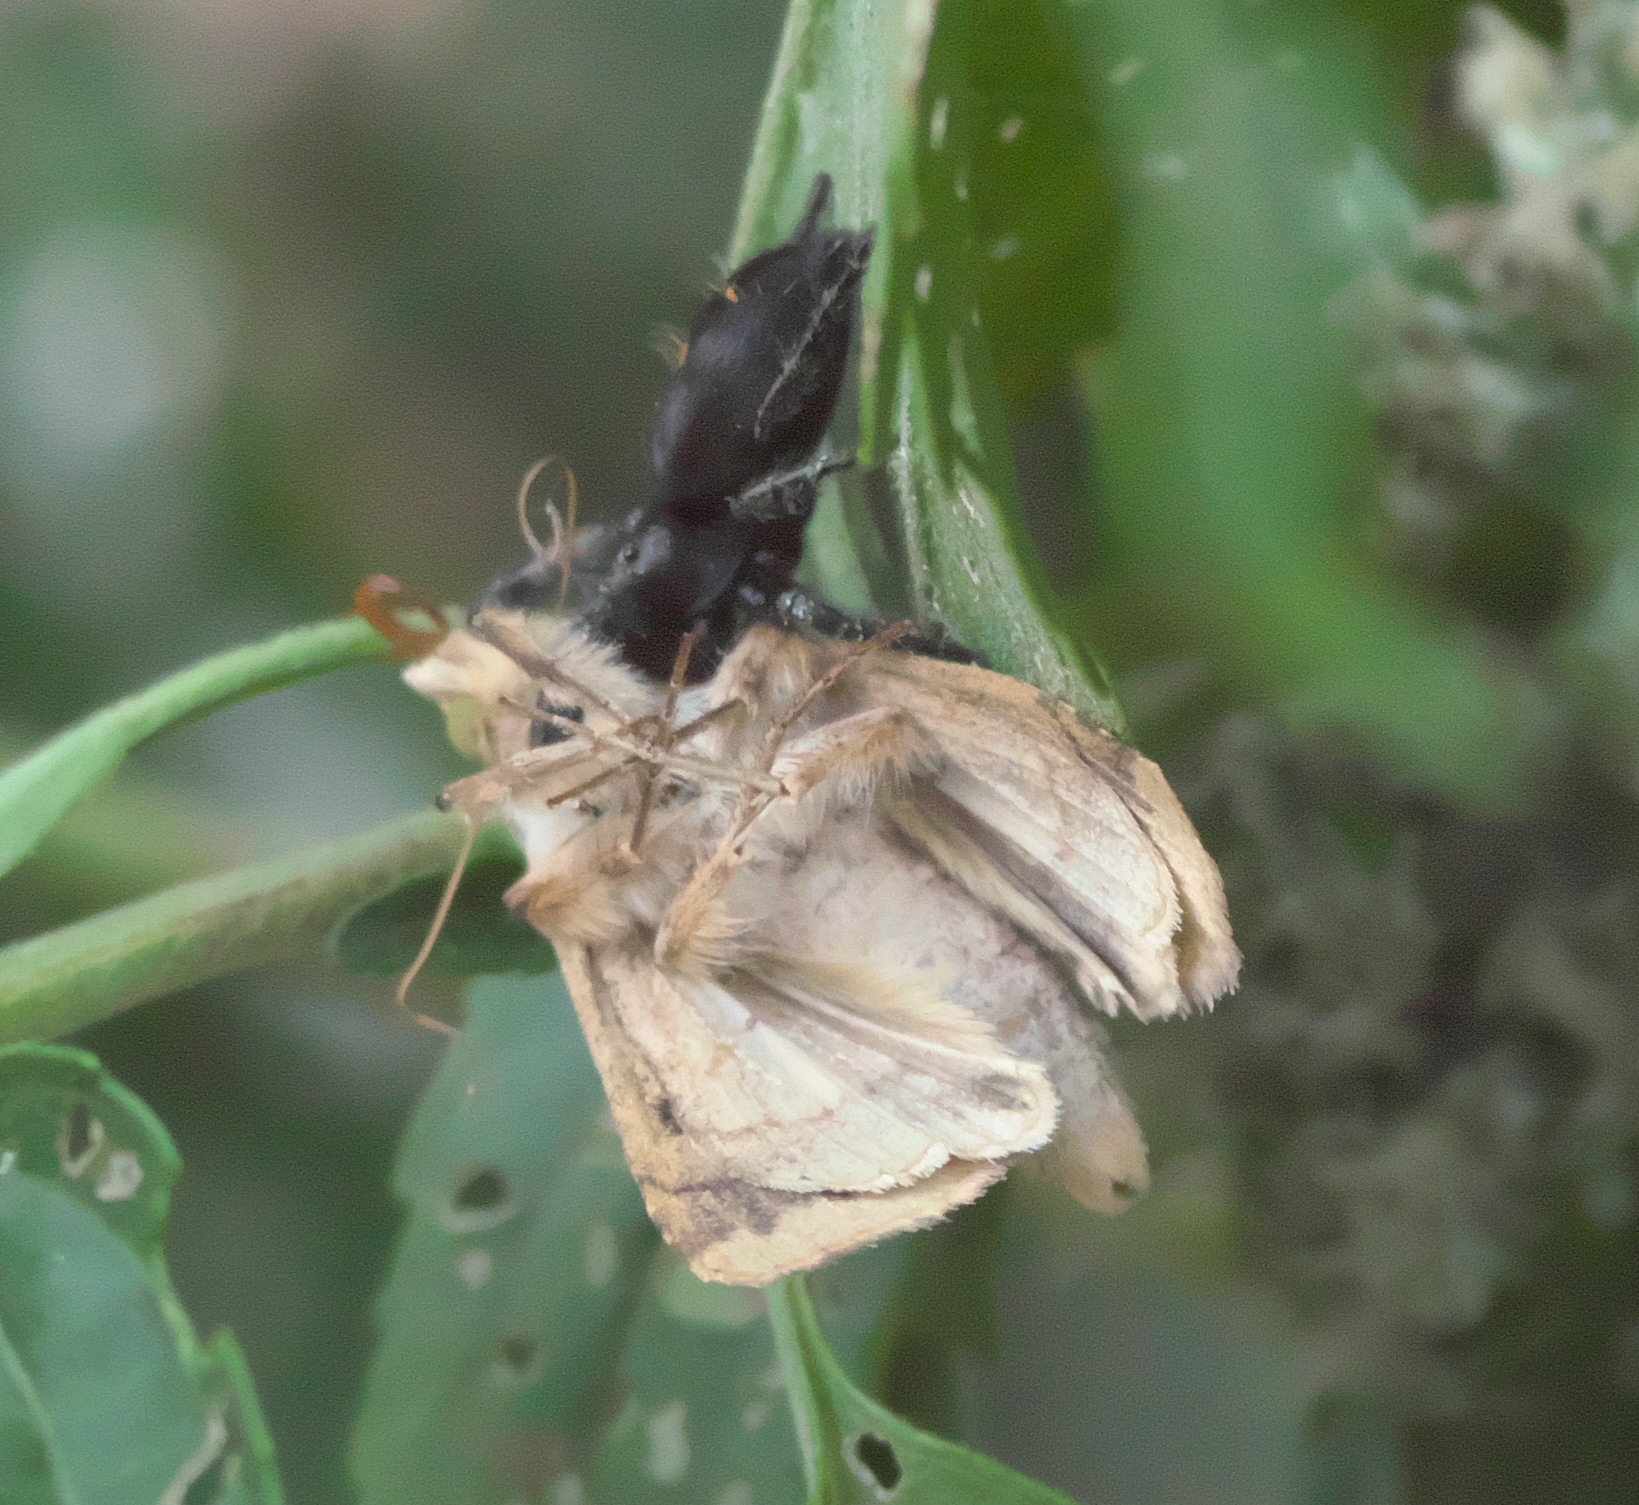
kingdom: Animalia
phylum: Arthropoda
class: Arachnida
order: Araneae
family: Salticidae
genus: Phidippus
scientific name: Phidippus audax
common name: Bold jumper
